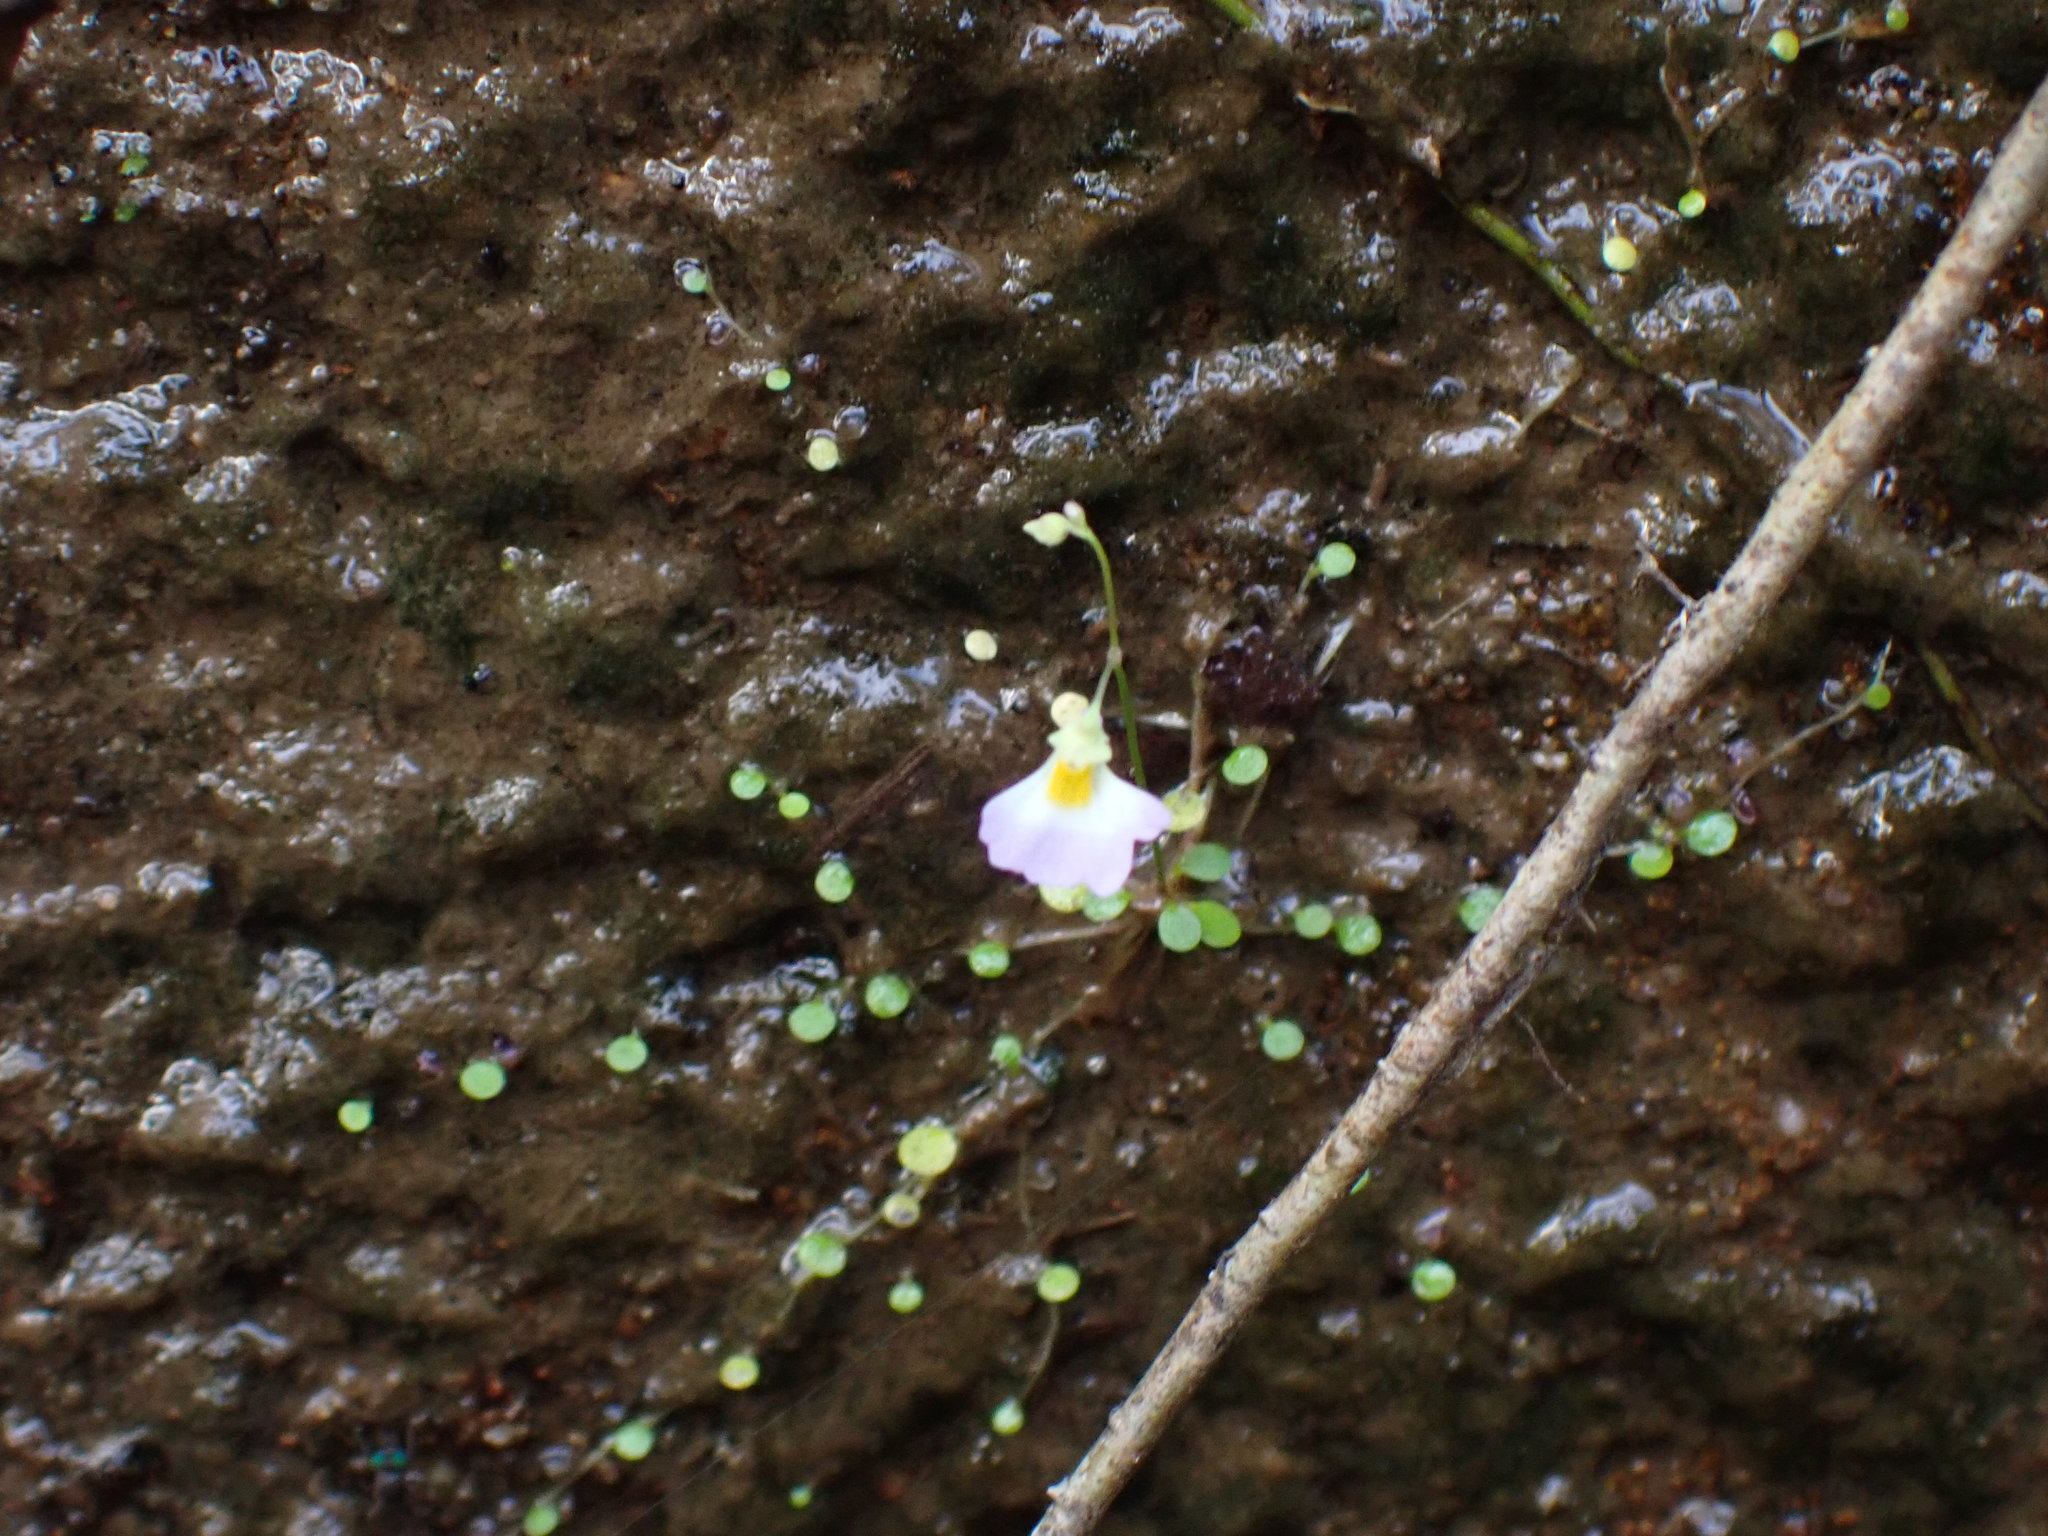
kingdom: Plantae
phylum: Tracheophyta
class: Magnoliopsida
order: Lamiales
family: Lentibulariaceae
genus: Utricularia
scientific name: Utricularia striatula
